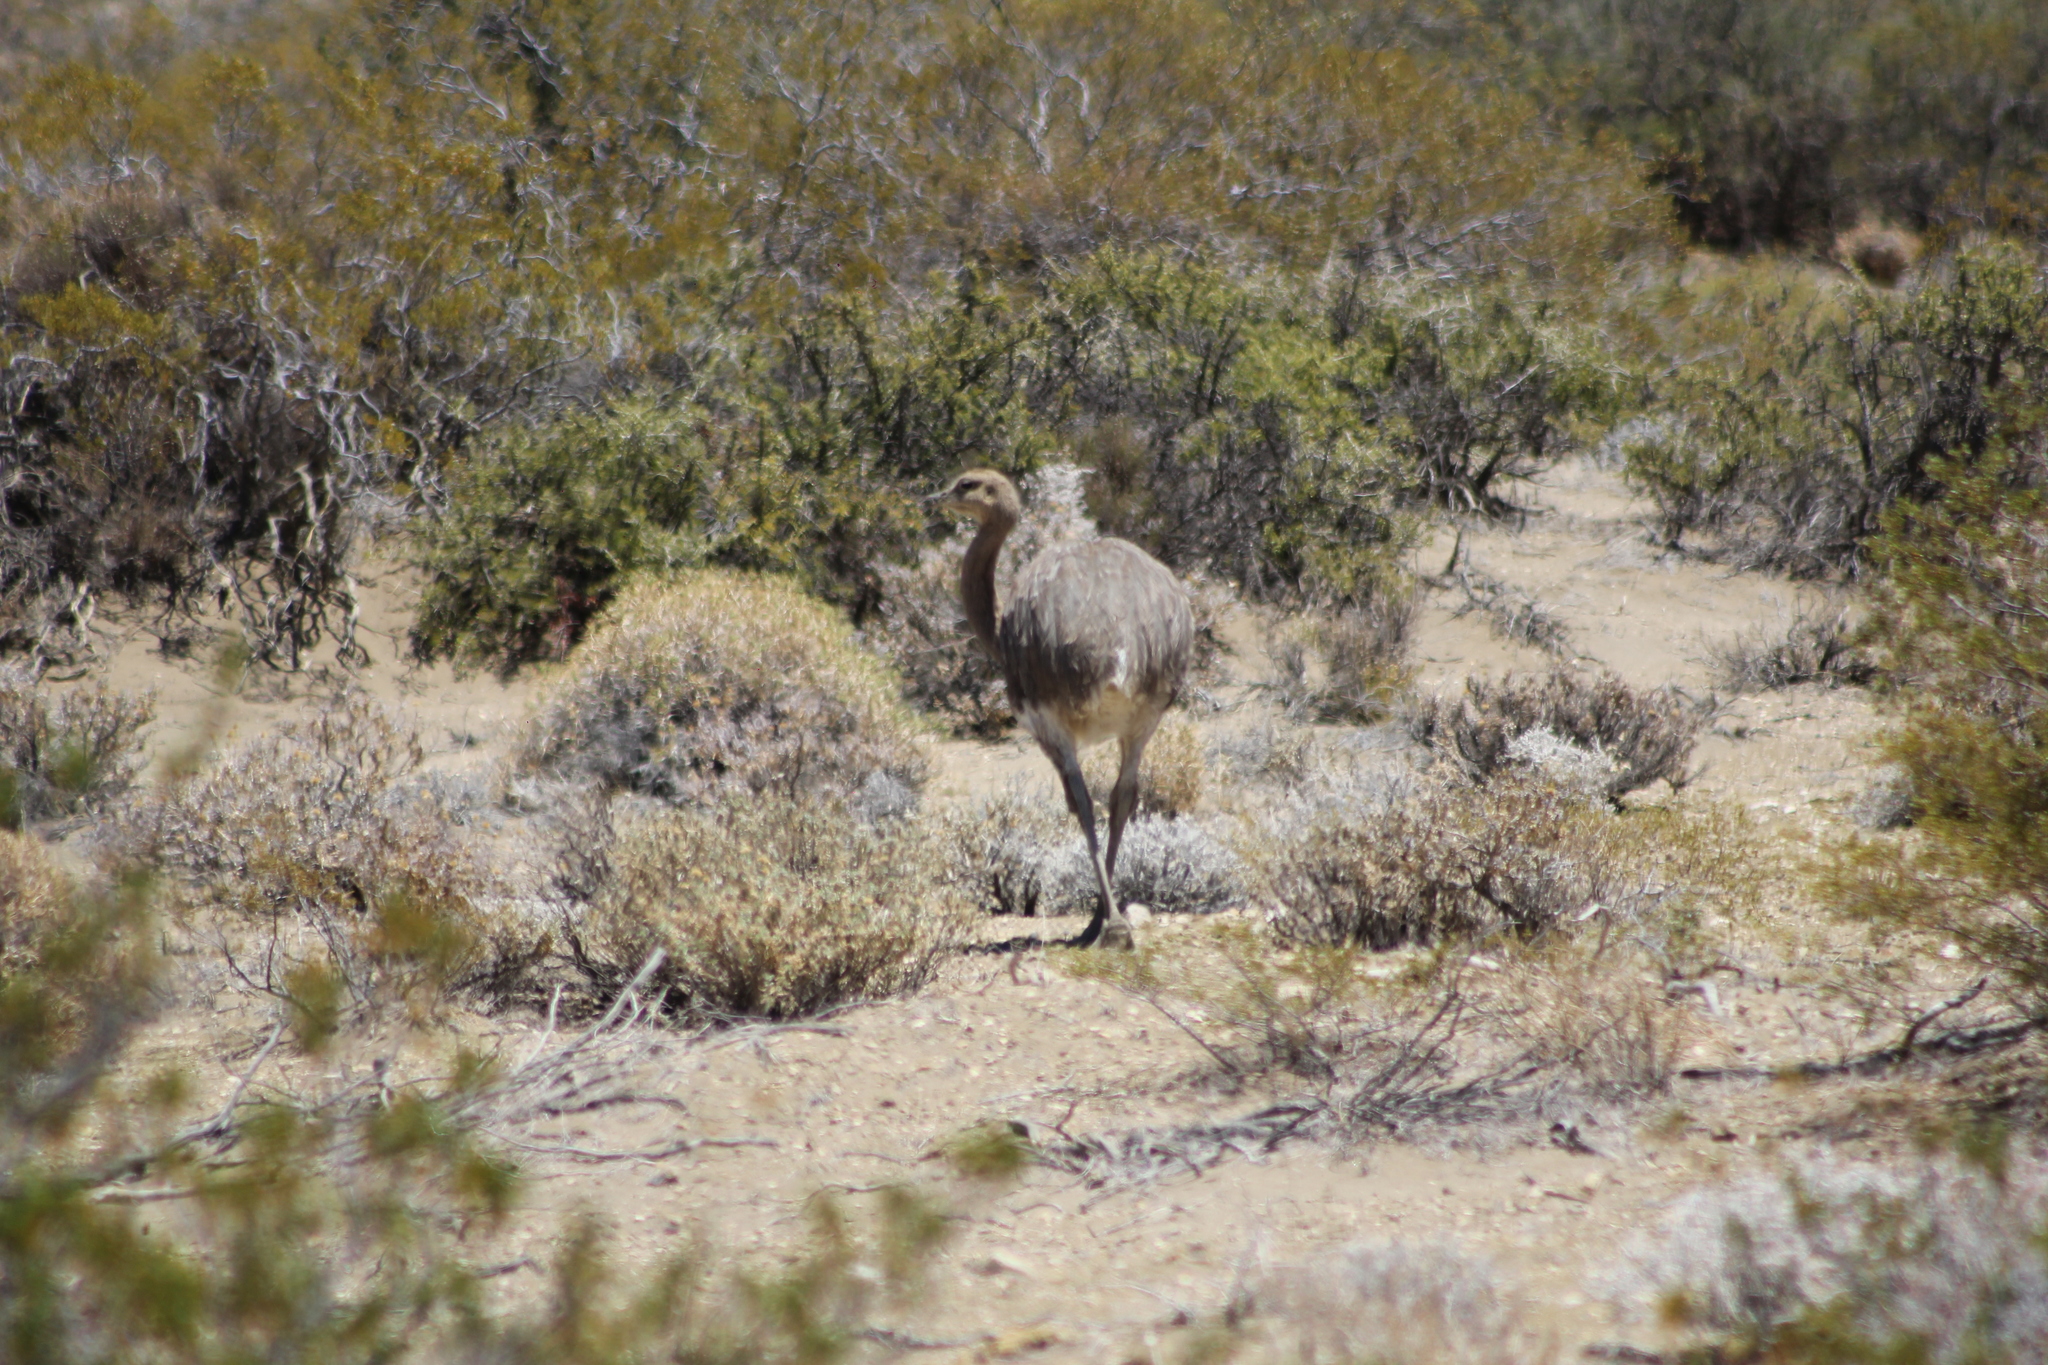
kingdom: Animalia
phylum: Chordata
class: Aves
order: Rheiformes
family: Rheidae
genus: Rhea
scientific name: Rhea pennata
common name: Lesser rhea
